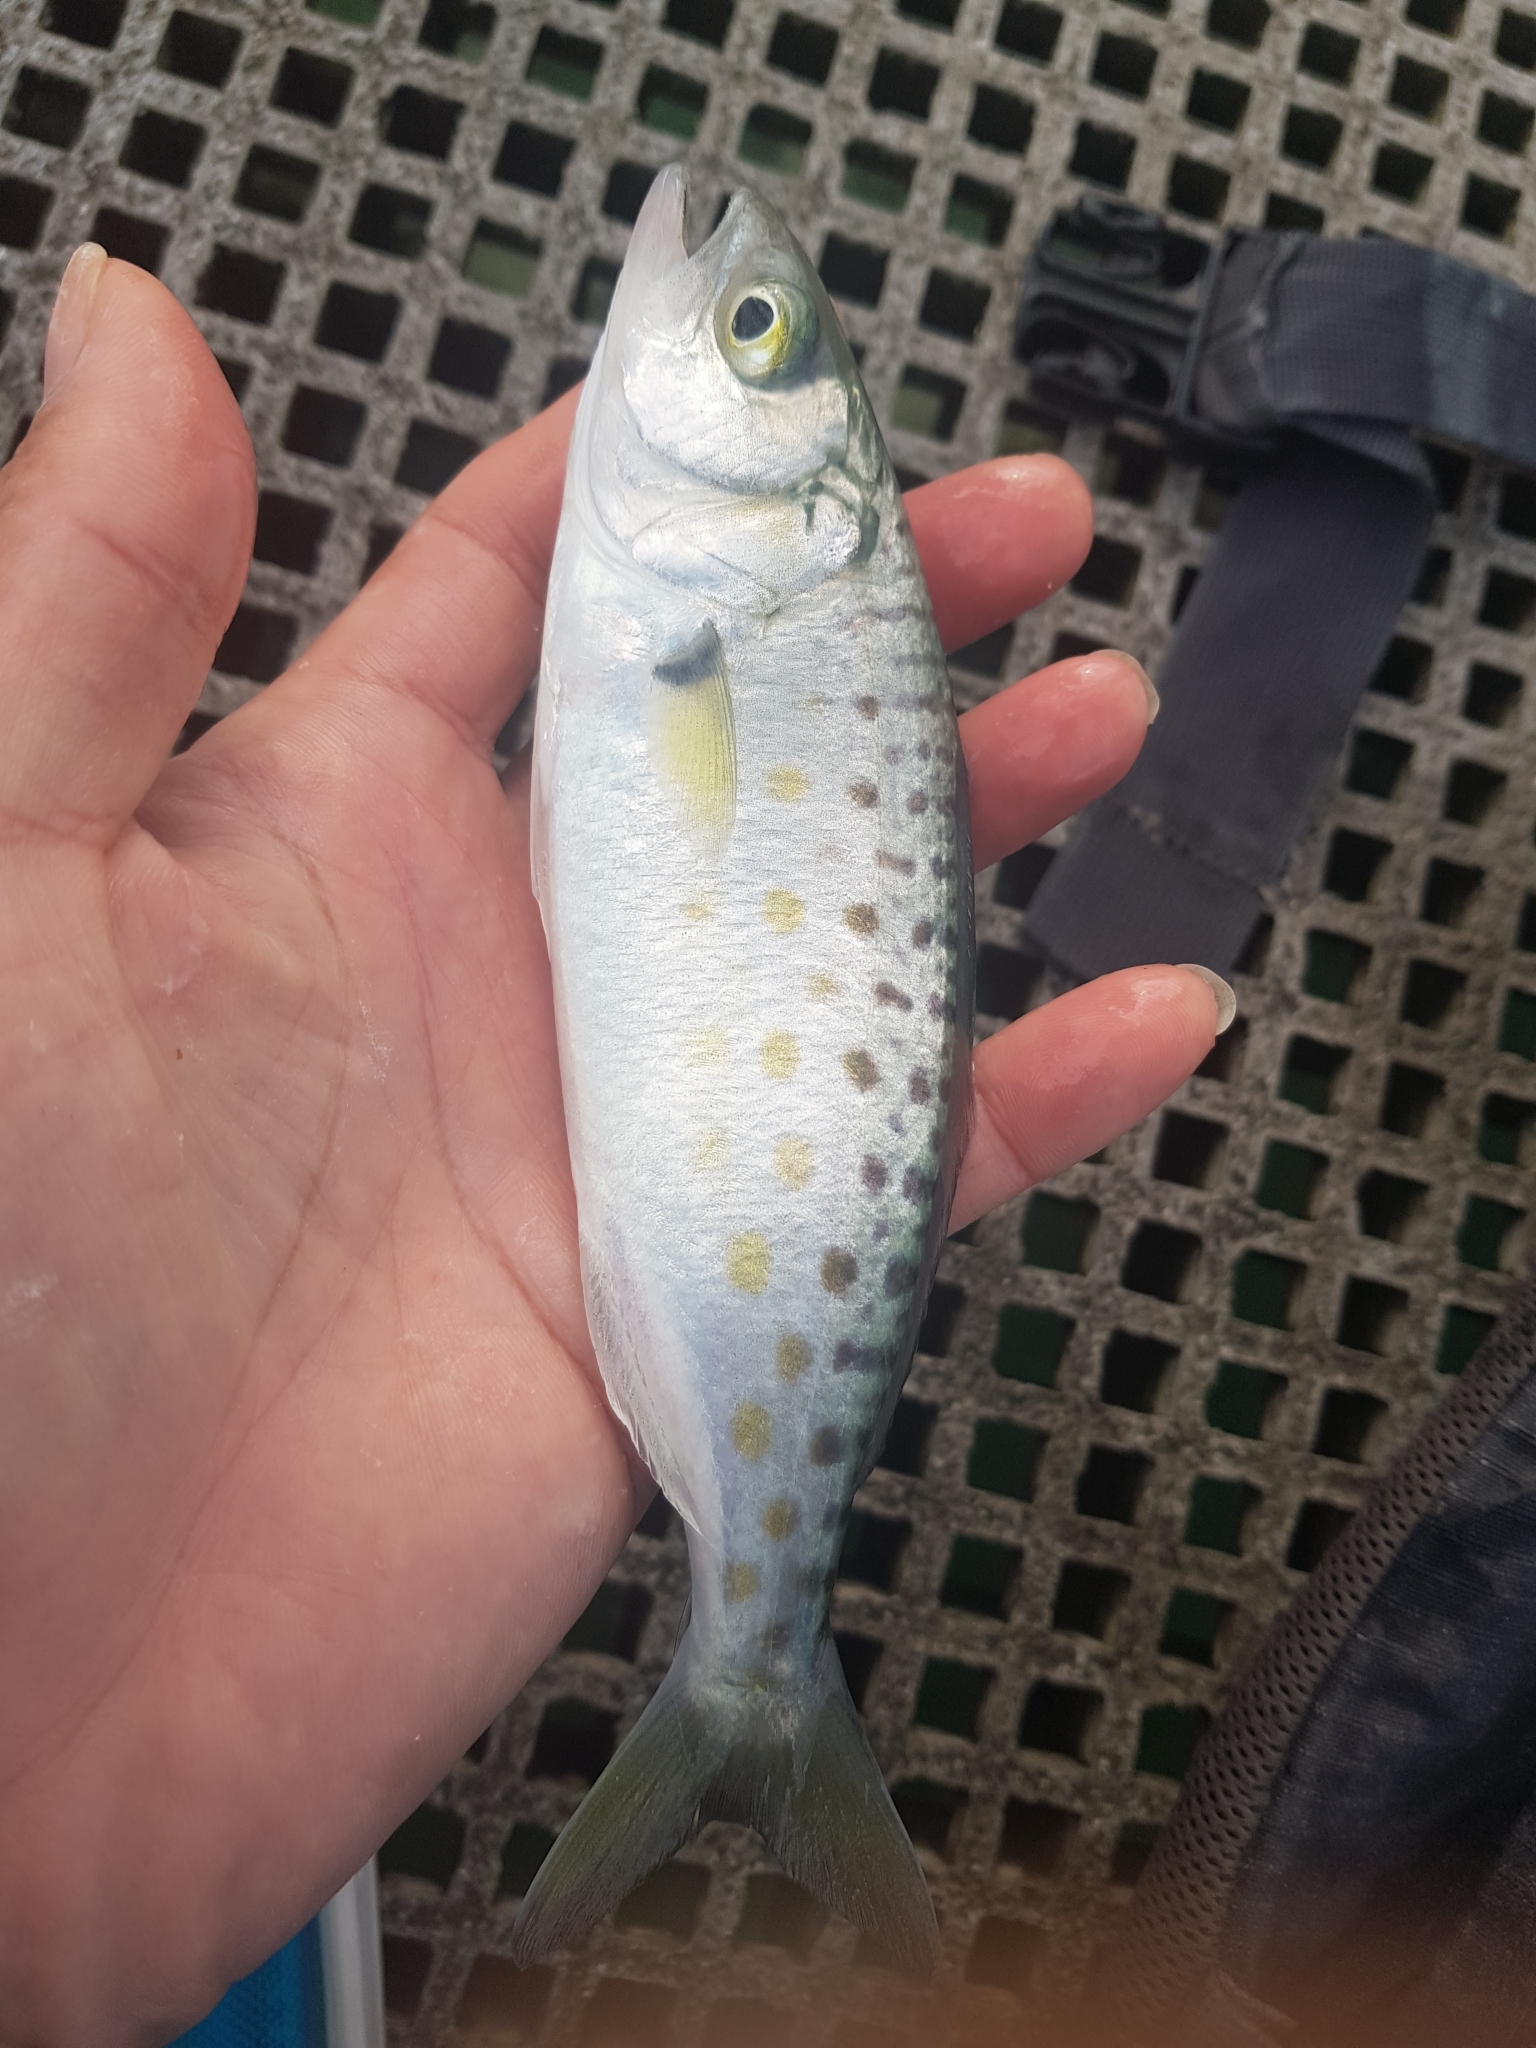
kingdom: Animalia
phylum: Chordata
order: Perciformes
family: Arripidae
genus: Arripis
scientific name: Arripis trutta
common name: Kahawai
